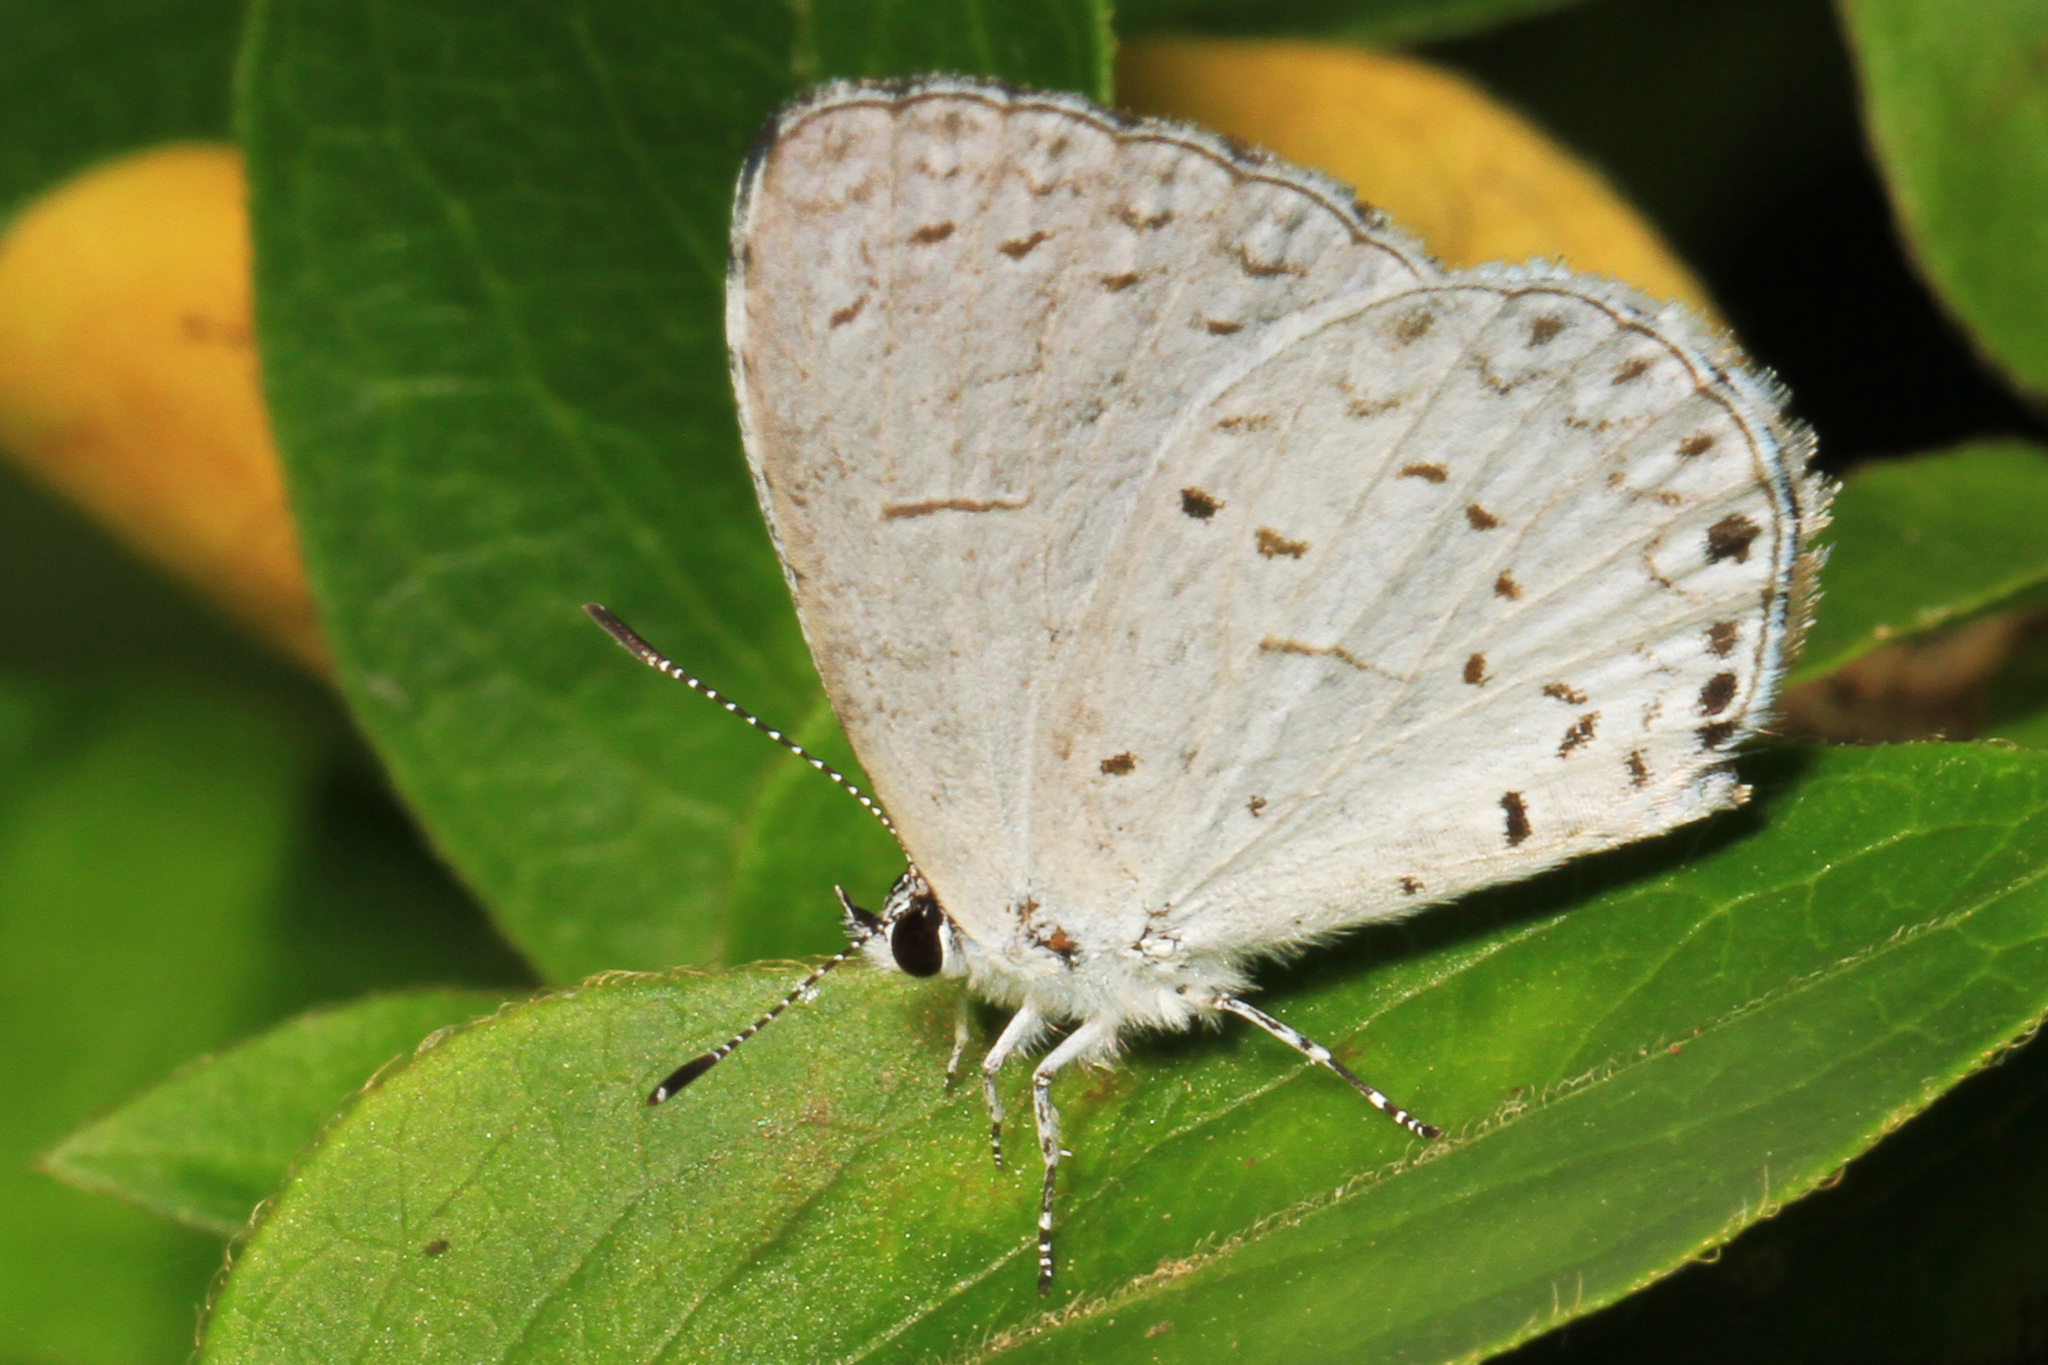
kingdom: Animalia
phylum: Arthropoda
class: Insecta
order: Lepidoptera
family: Lycaenidae
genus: Cyaniris
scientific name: Cyaniris neglecta
